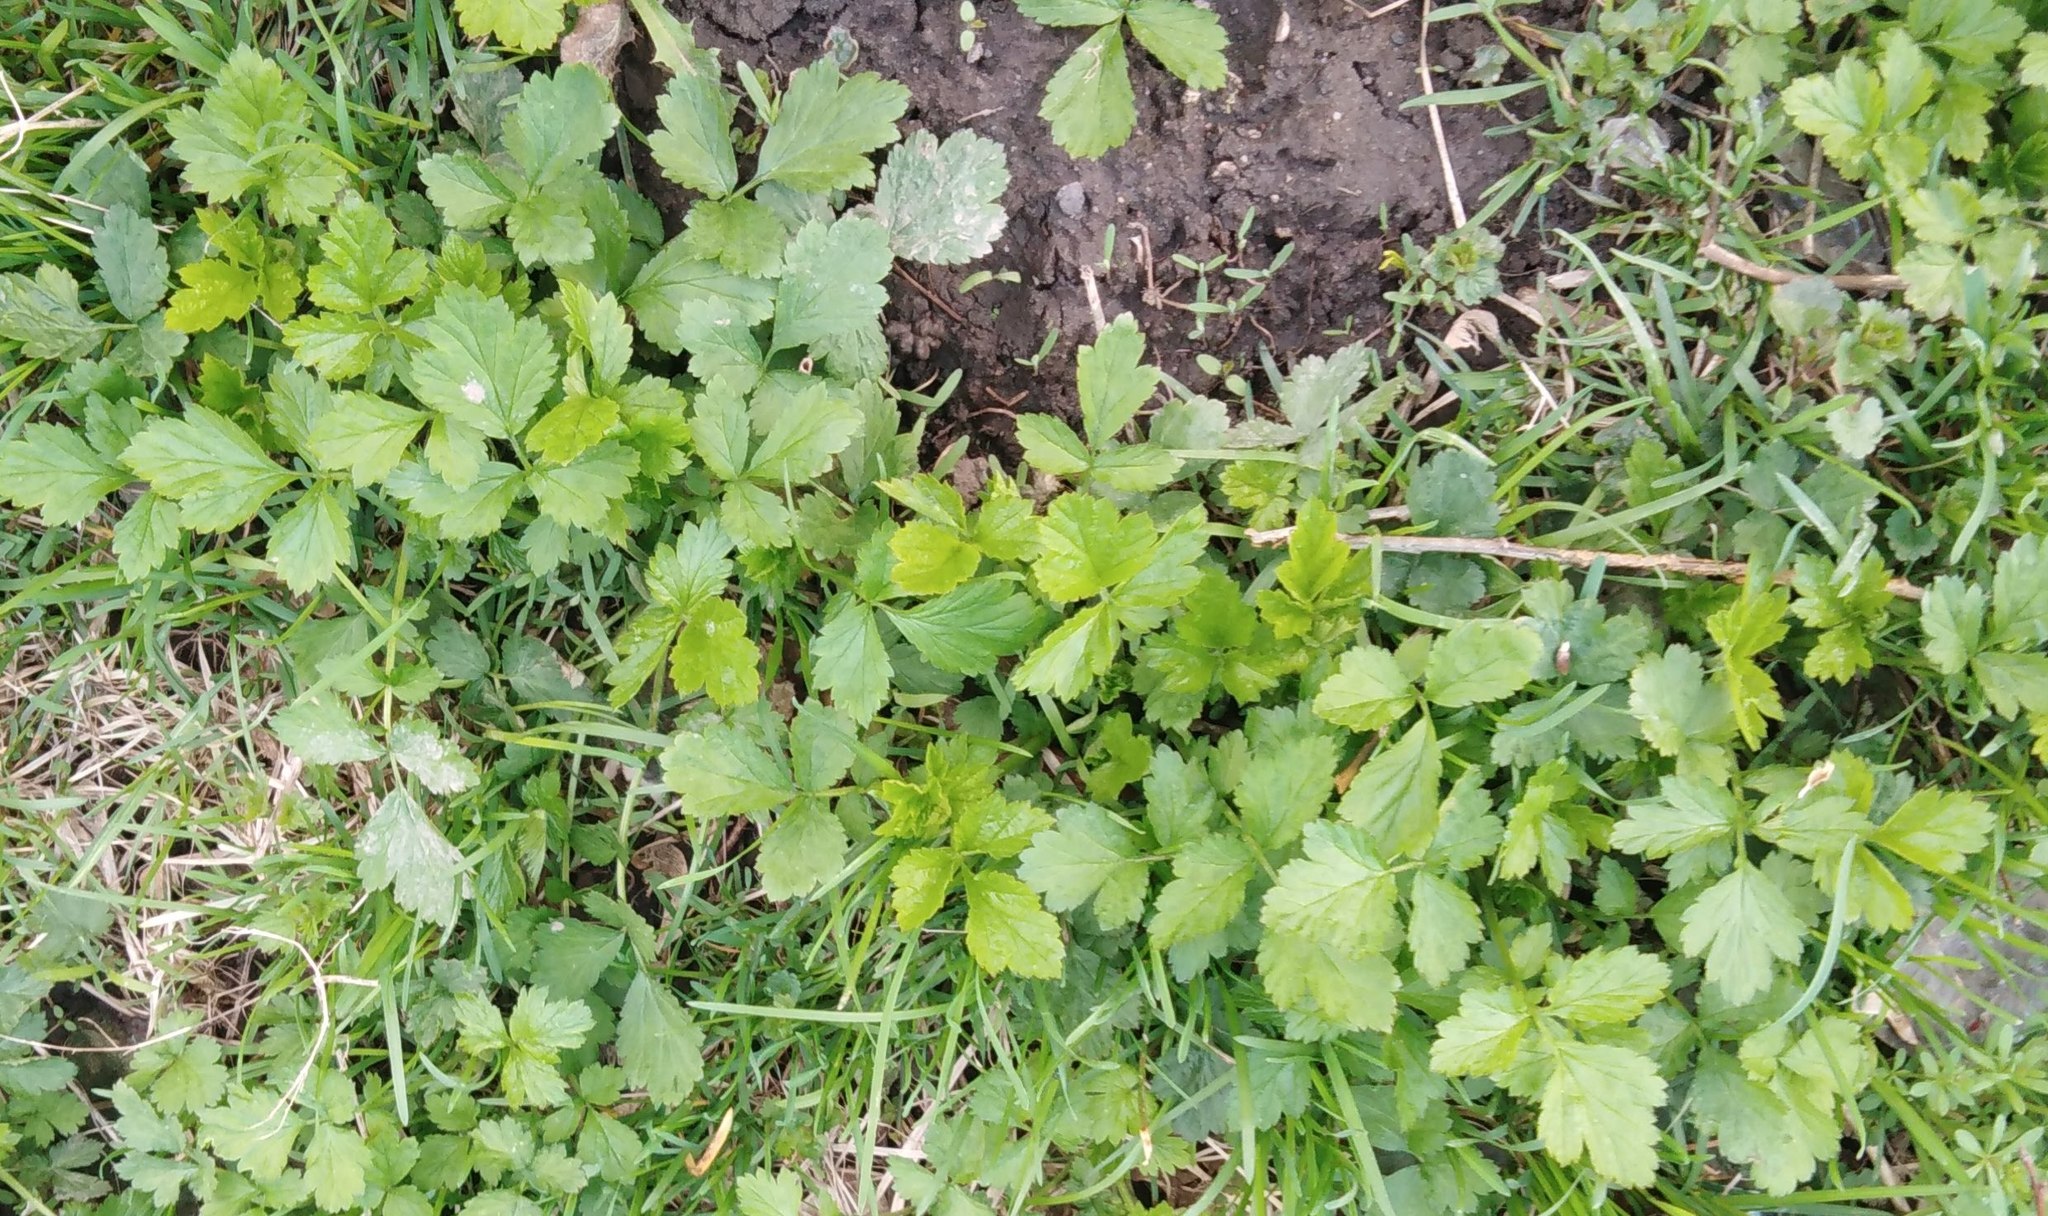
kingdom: Plantae
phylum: Tracheophyta
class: Magnoliopsida
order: Ranunculales
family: Ranunculaceae
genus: Ranunculus
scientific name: Ranunculus repens
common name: Creeping buttercup
